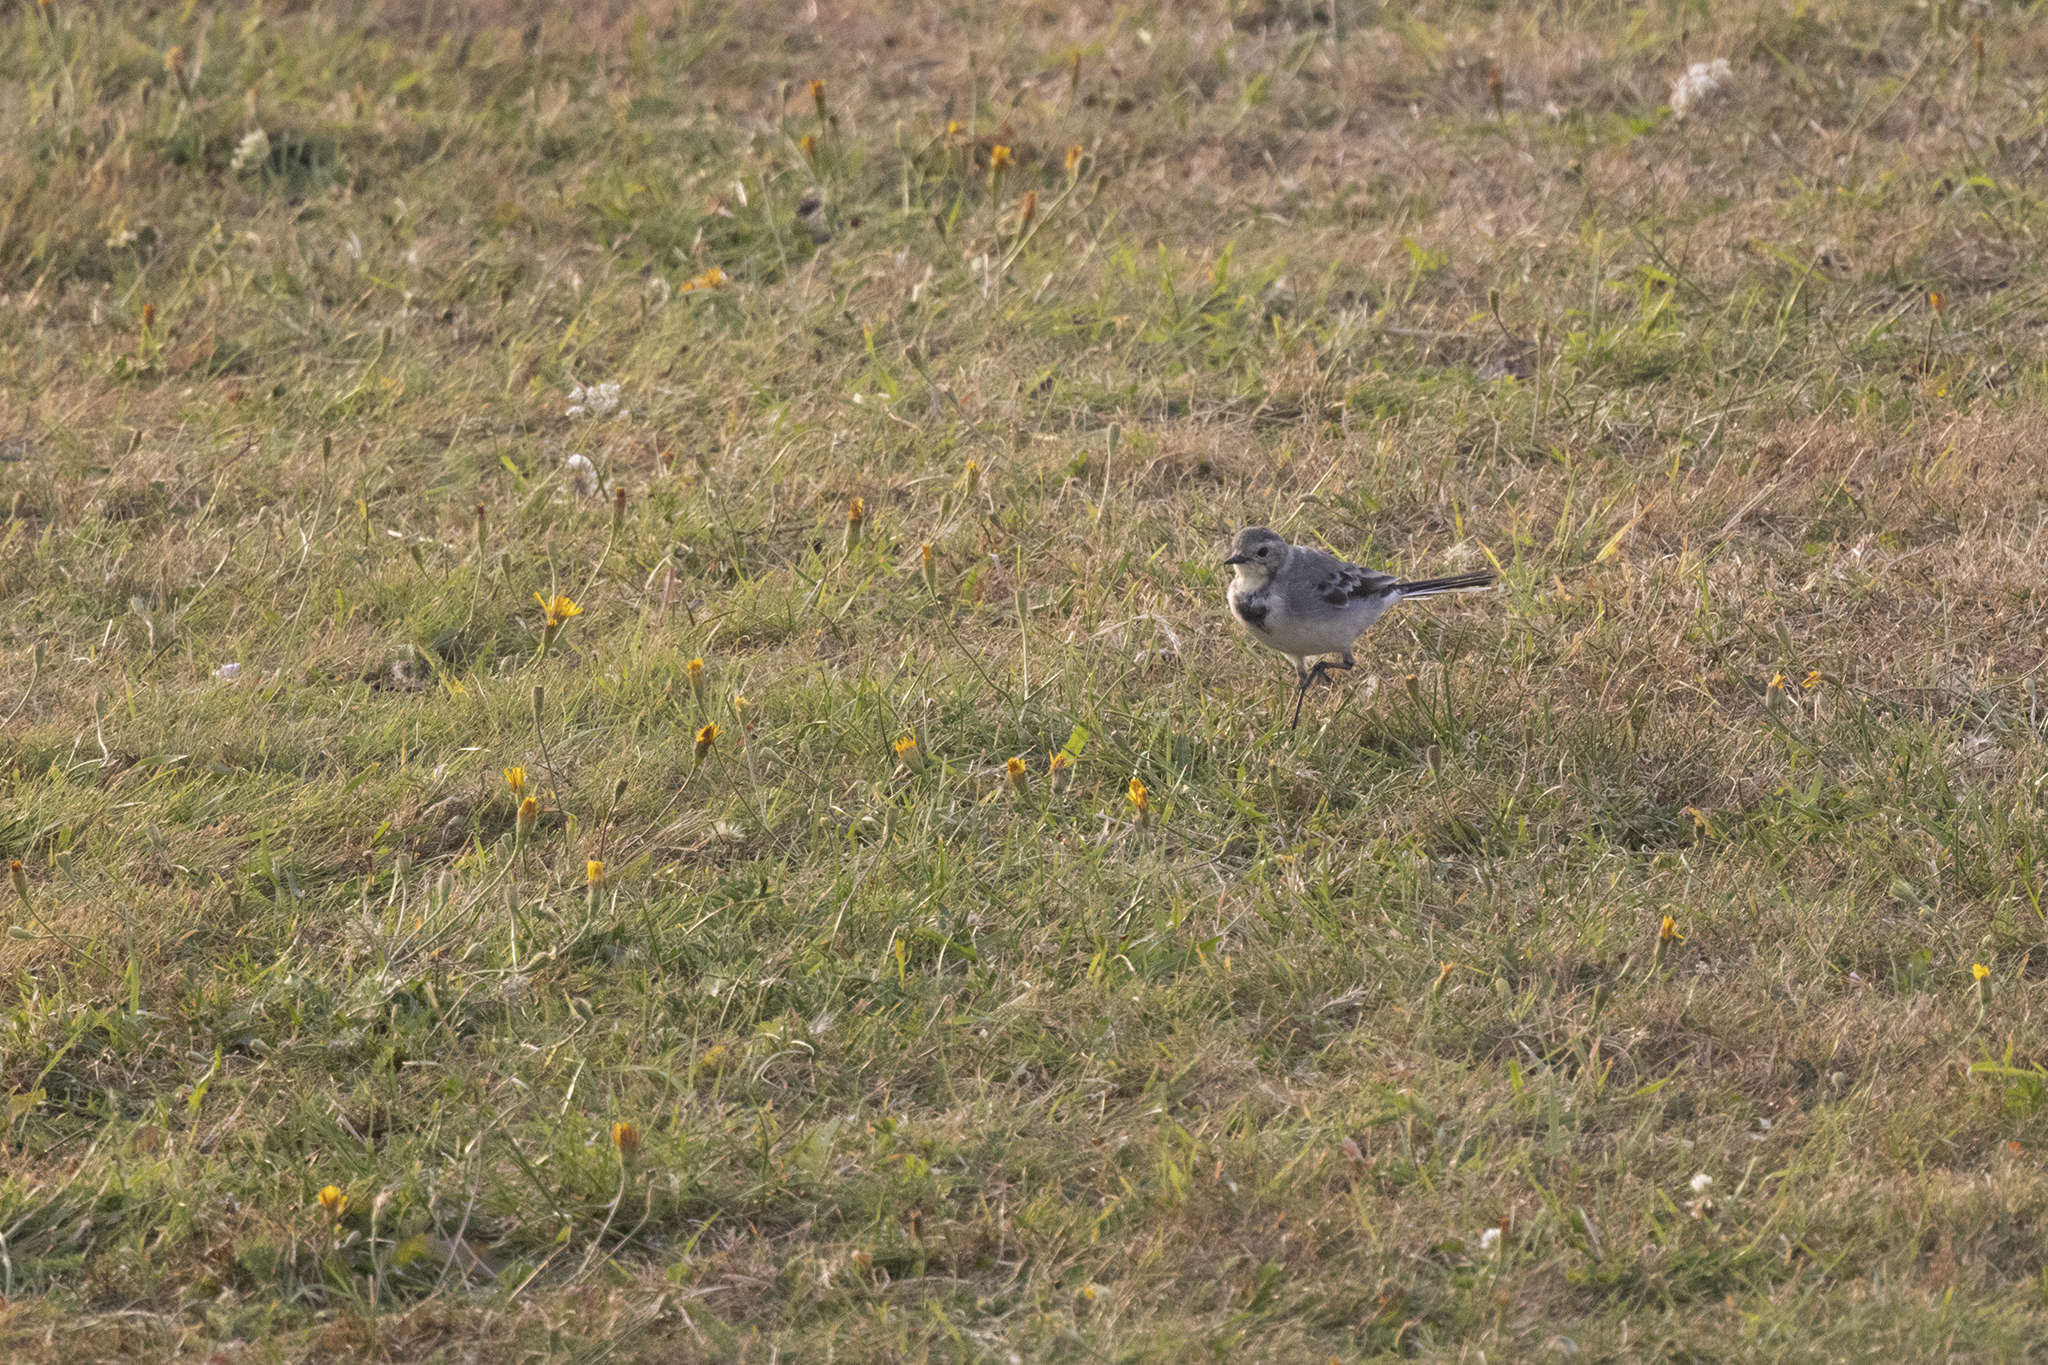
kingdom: Animalia
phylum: Chordata
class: Aves
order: Passeriformes
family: Motacillidae
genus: Motacilla
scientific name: Motacilla alba
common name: White wagtail
